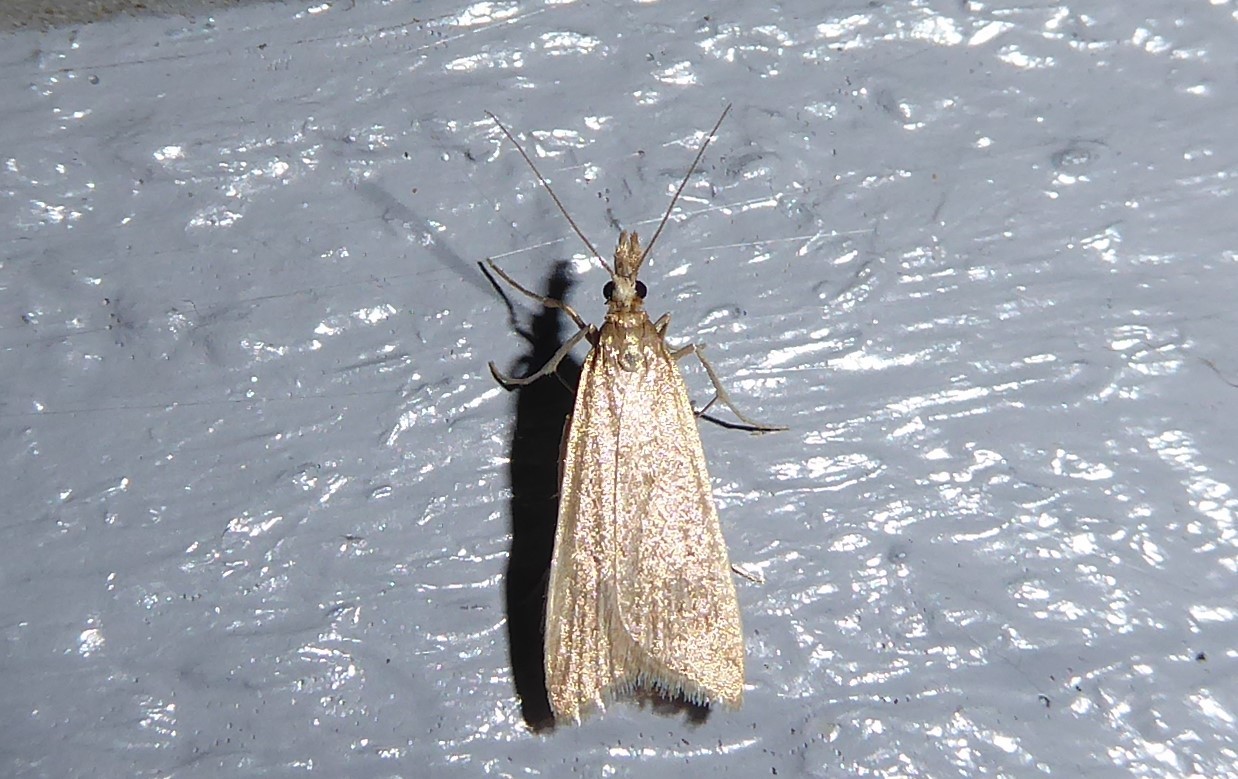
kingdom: Animalia
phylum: Arthropoda
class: Insecta
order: Lepidoptera
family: Crambidae
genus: Antiscopa
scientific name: Antiscopa elaphra
